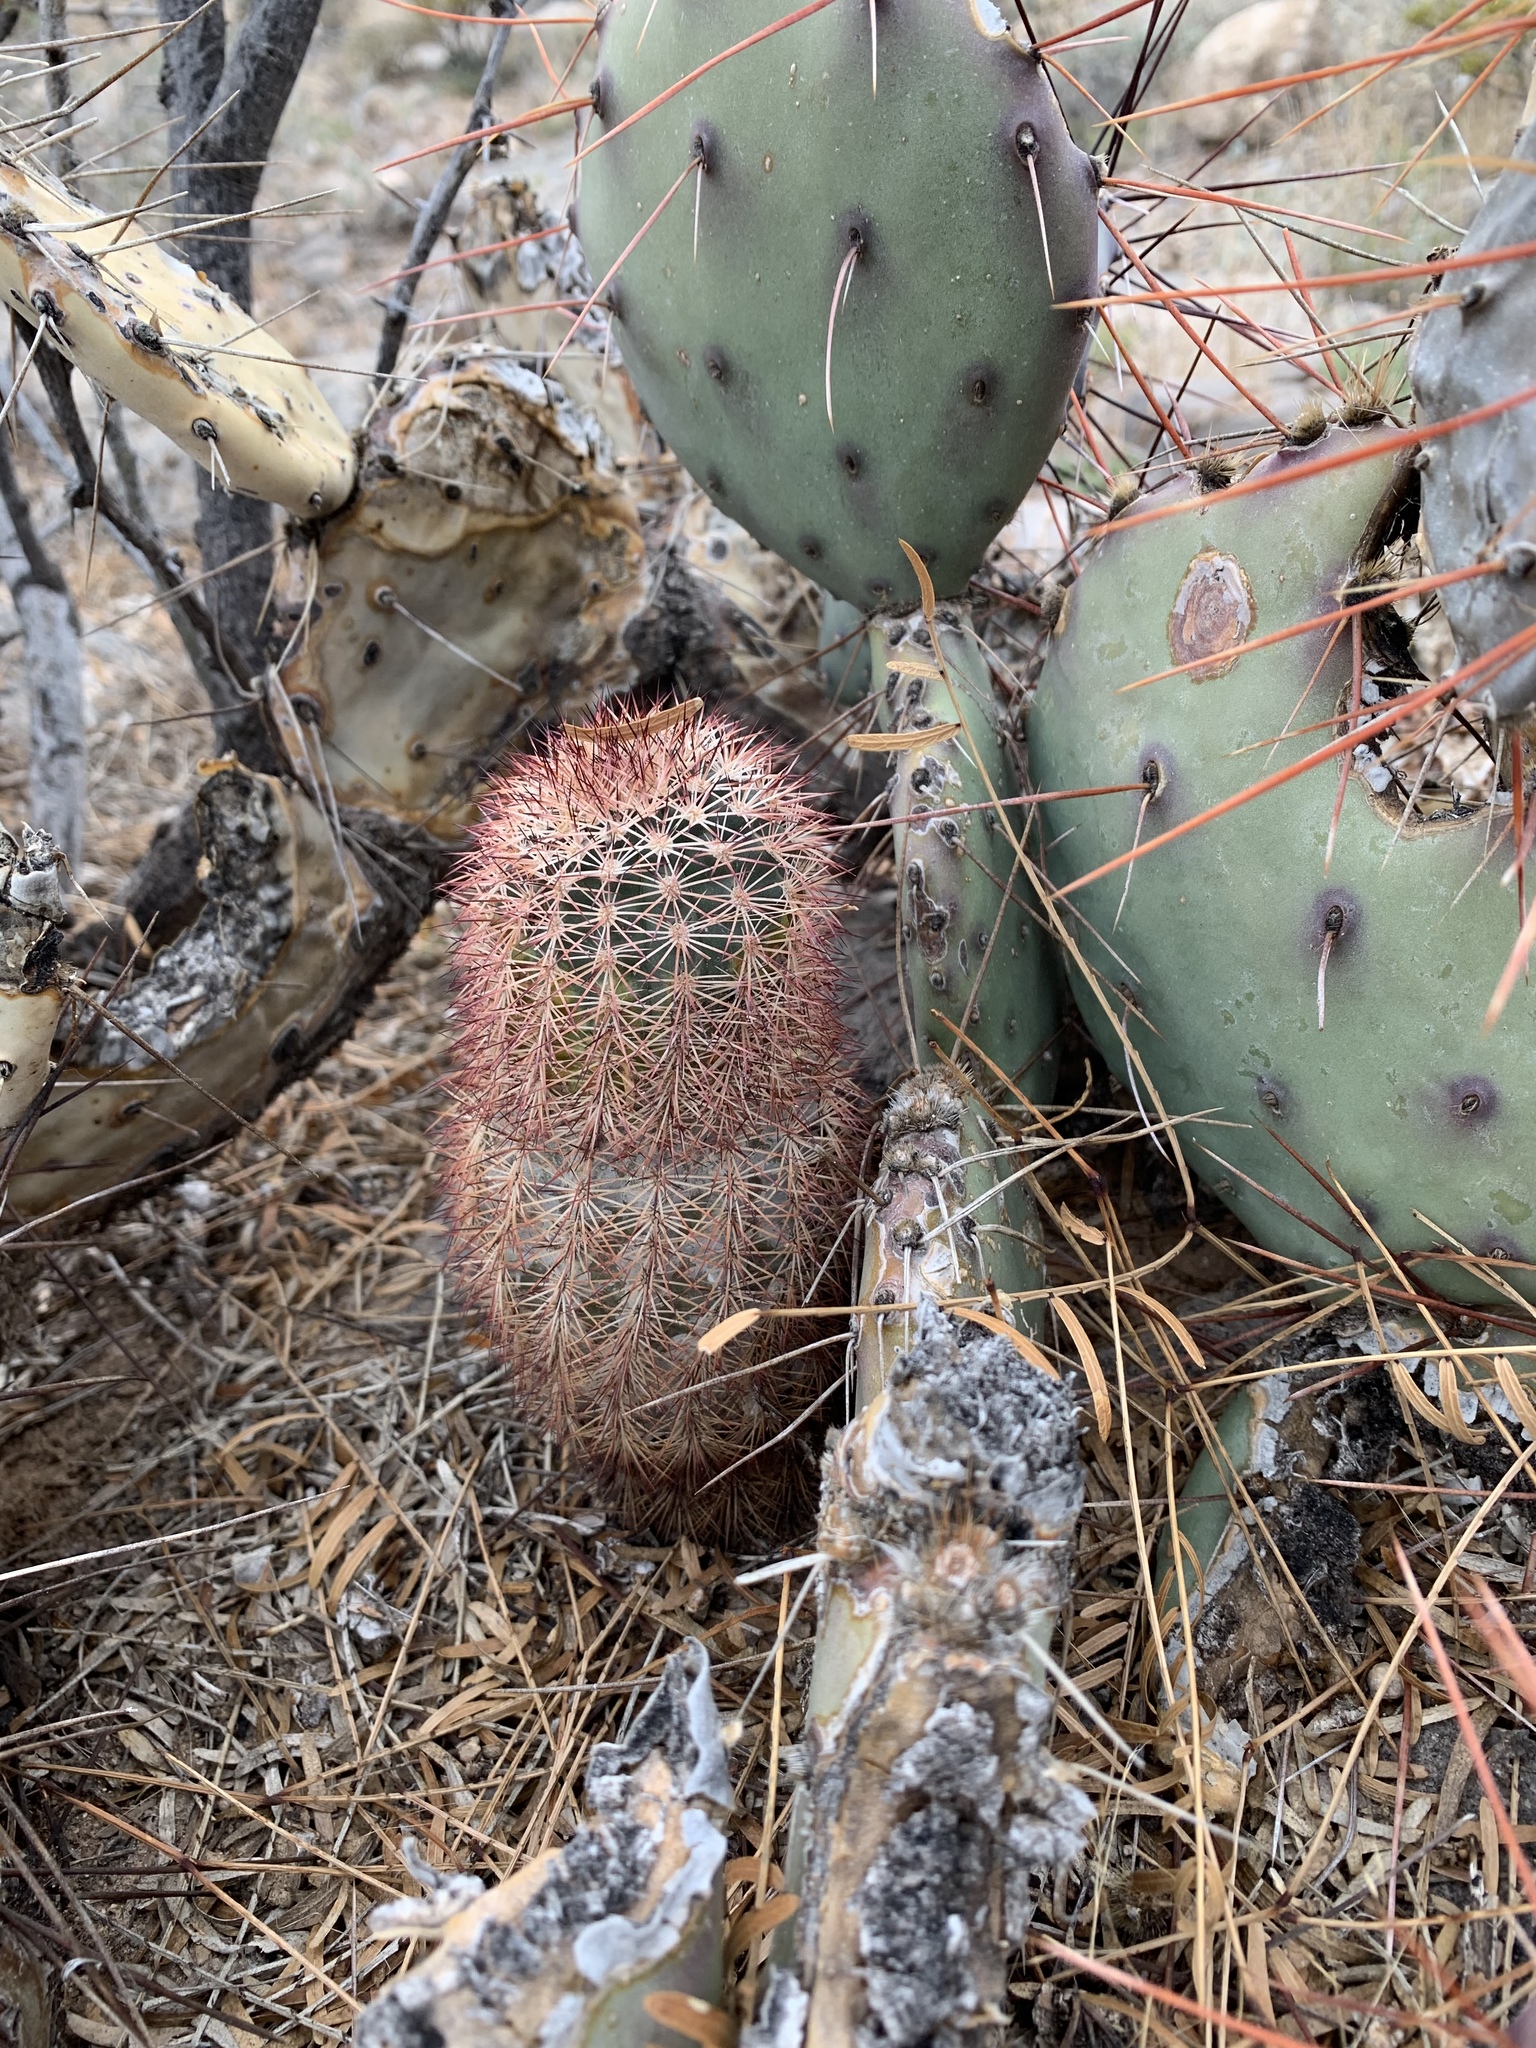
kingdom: Plantae
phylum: Tracheophyta
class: Magnoliopsida
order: Caryophyllales
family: Cactaceae
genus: Echinocereus
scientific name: Echinocereus dasyacanthus
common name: Spiny hedgehog cactus
